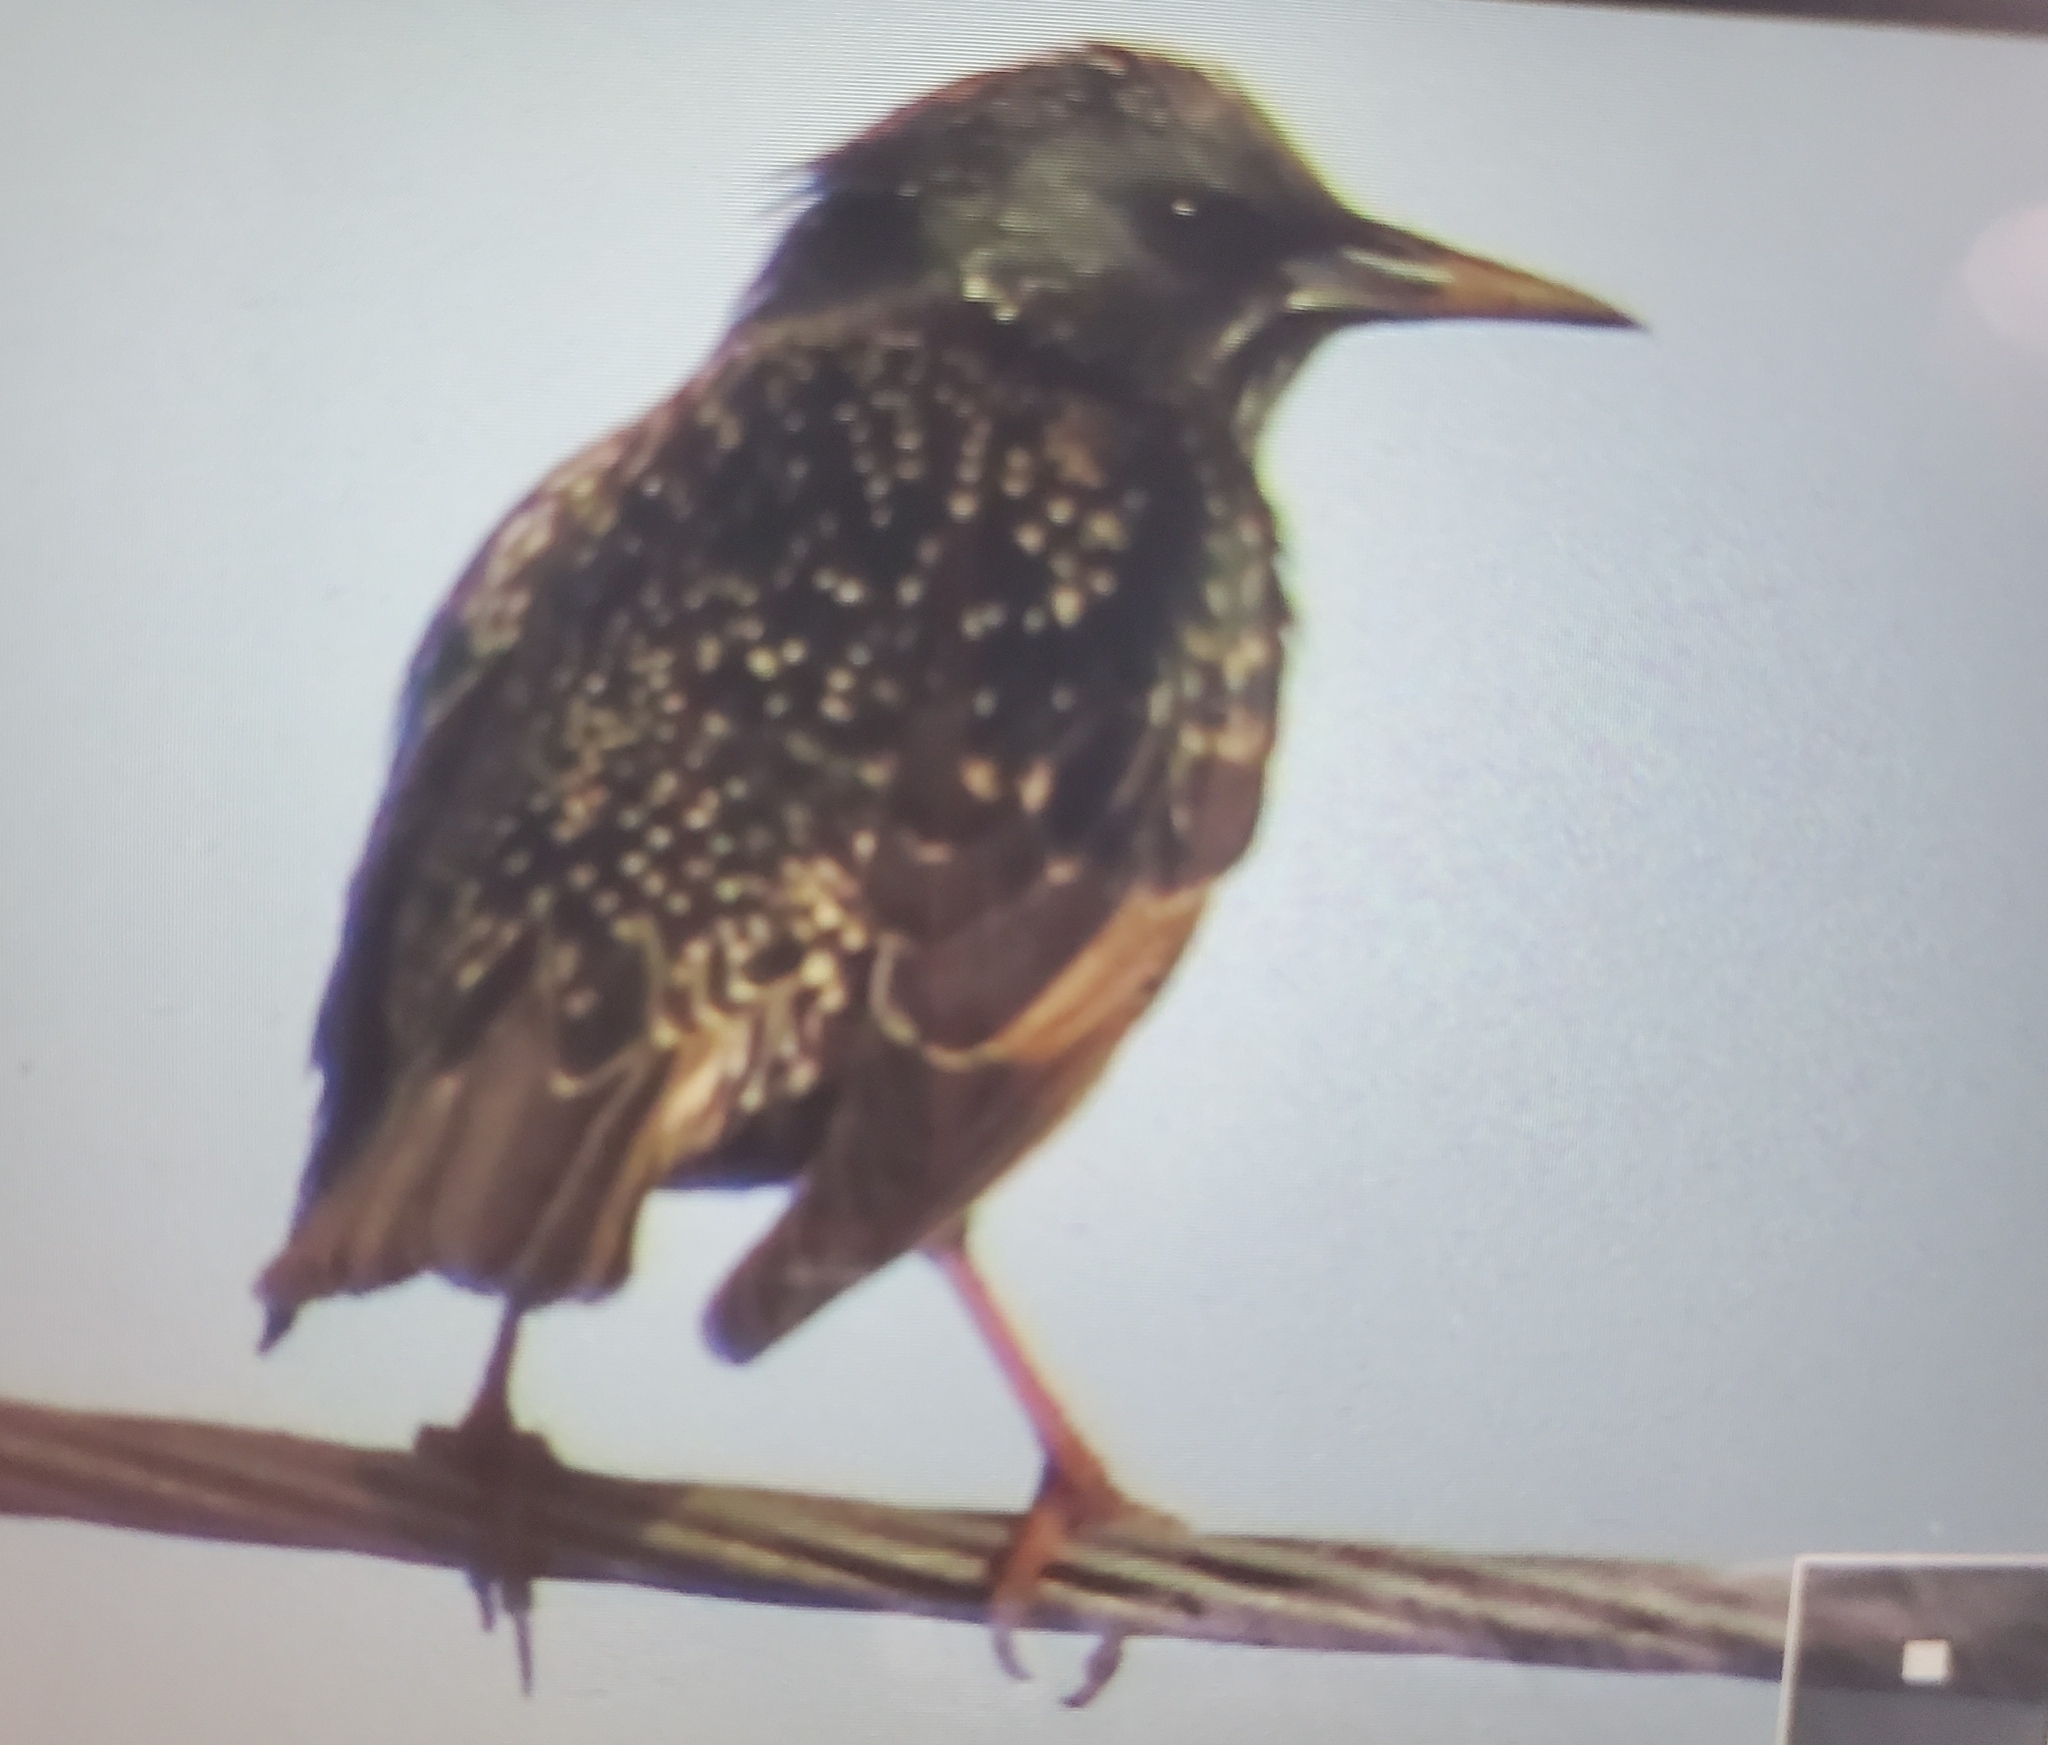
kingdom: Animalia
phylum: Chordata
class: Aves
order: Passeriformes
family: Sturnidae
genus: Sturnus
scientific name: Sturnus vulgaris
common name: Common starling
